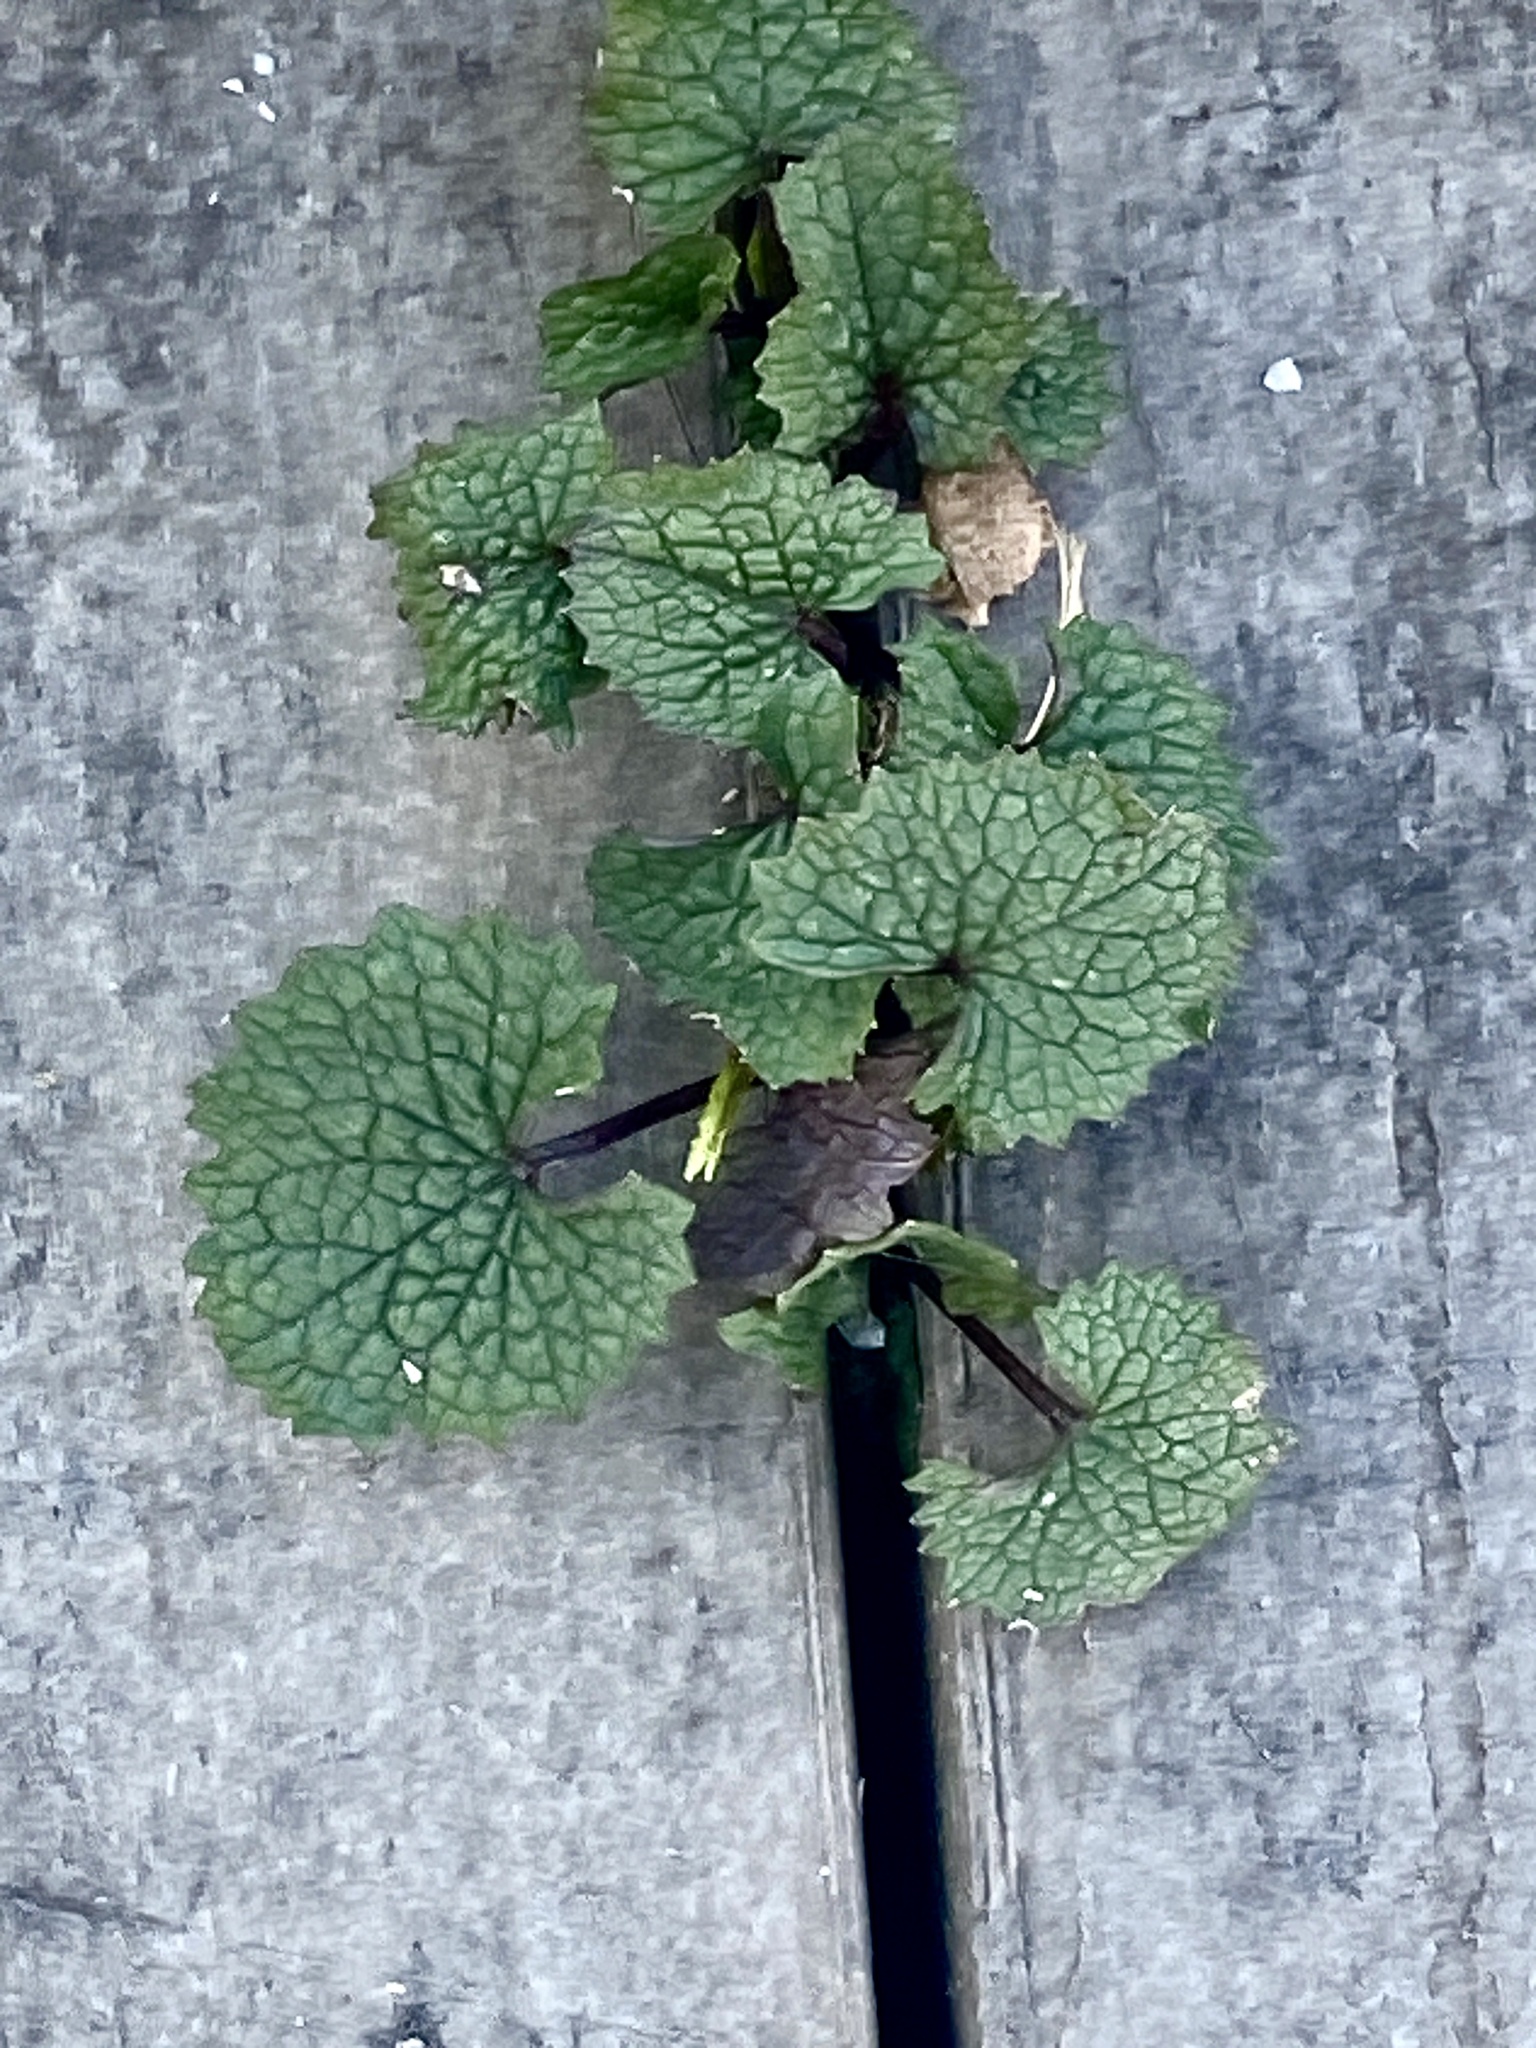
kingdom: Plantae
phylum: Tracheophyta
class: Magnoliopsida
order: Brassicales
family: Brassicaceae
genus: Alliaria
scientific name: Alliaria petiolata
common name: Garlic mustard
